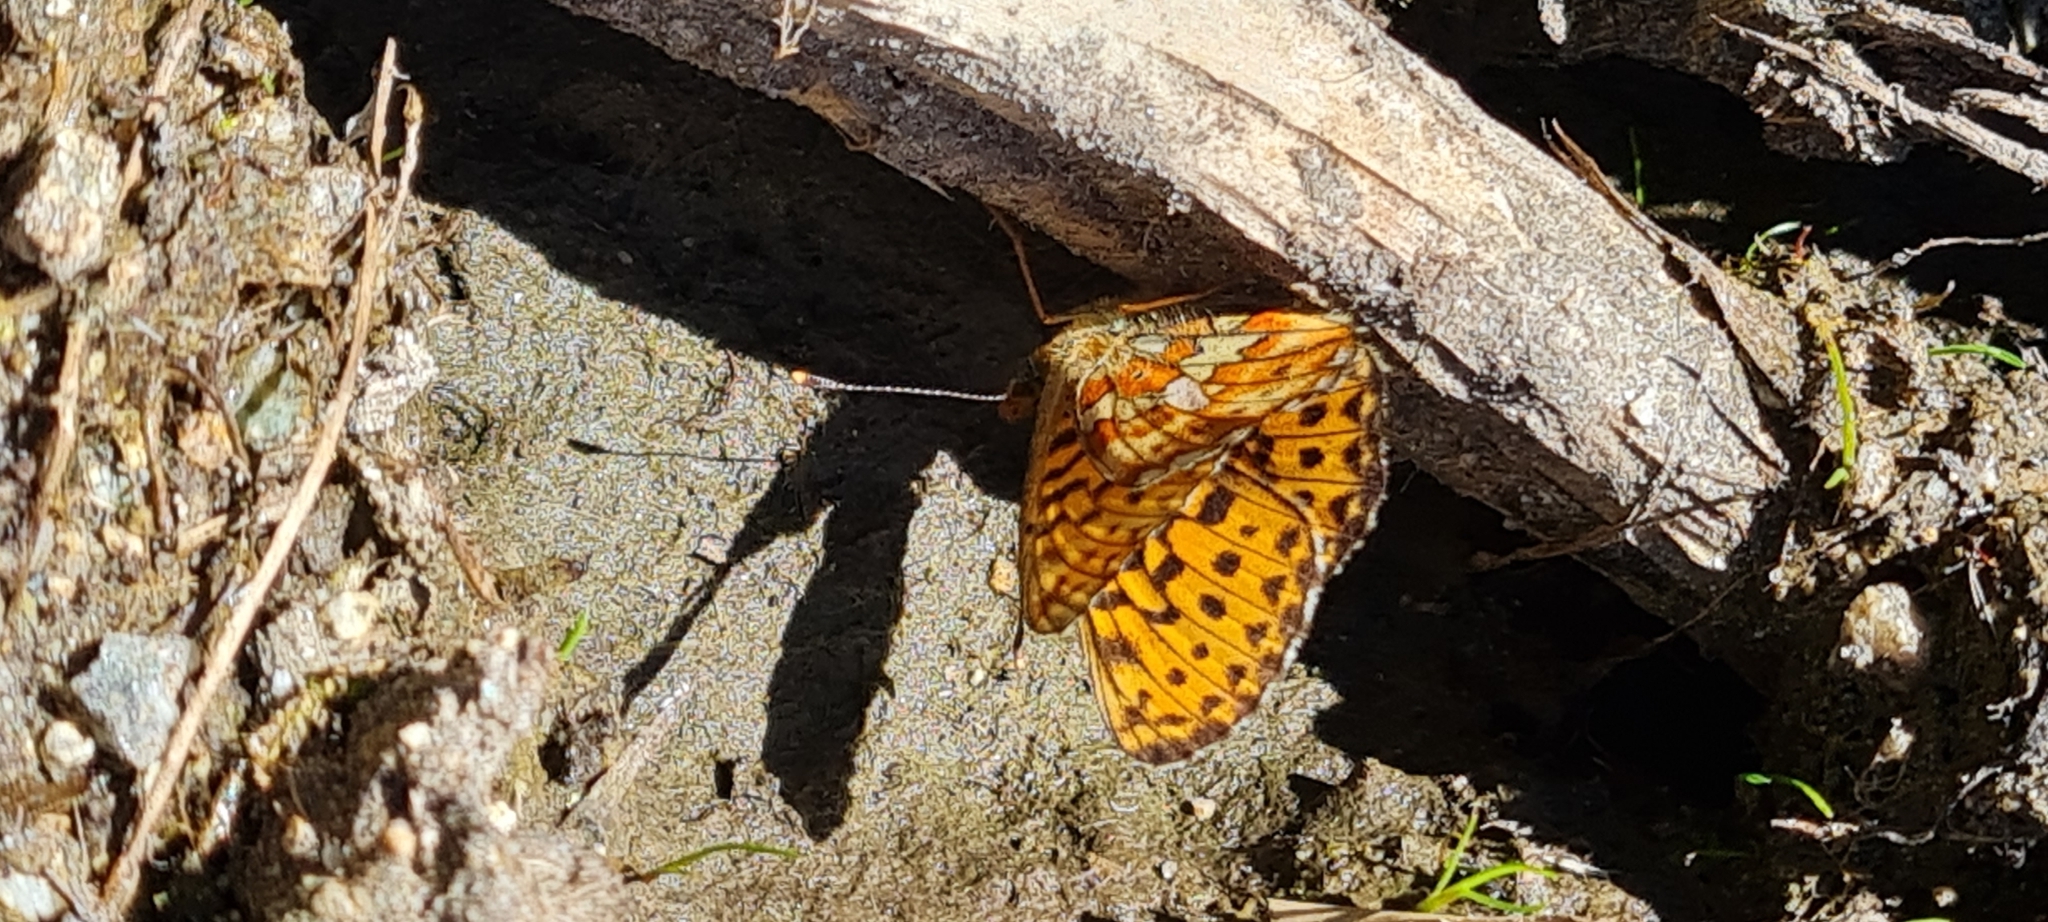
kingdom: Animalia
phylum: Arthropoda
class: Insecta
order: Lepidoptera
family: Nymphalidae
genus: Clossiana
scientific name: Clossiana euphrosyne
